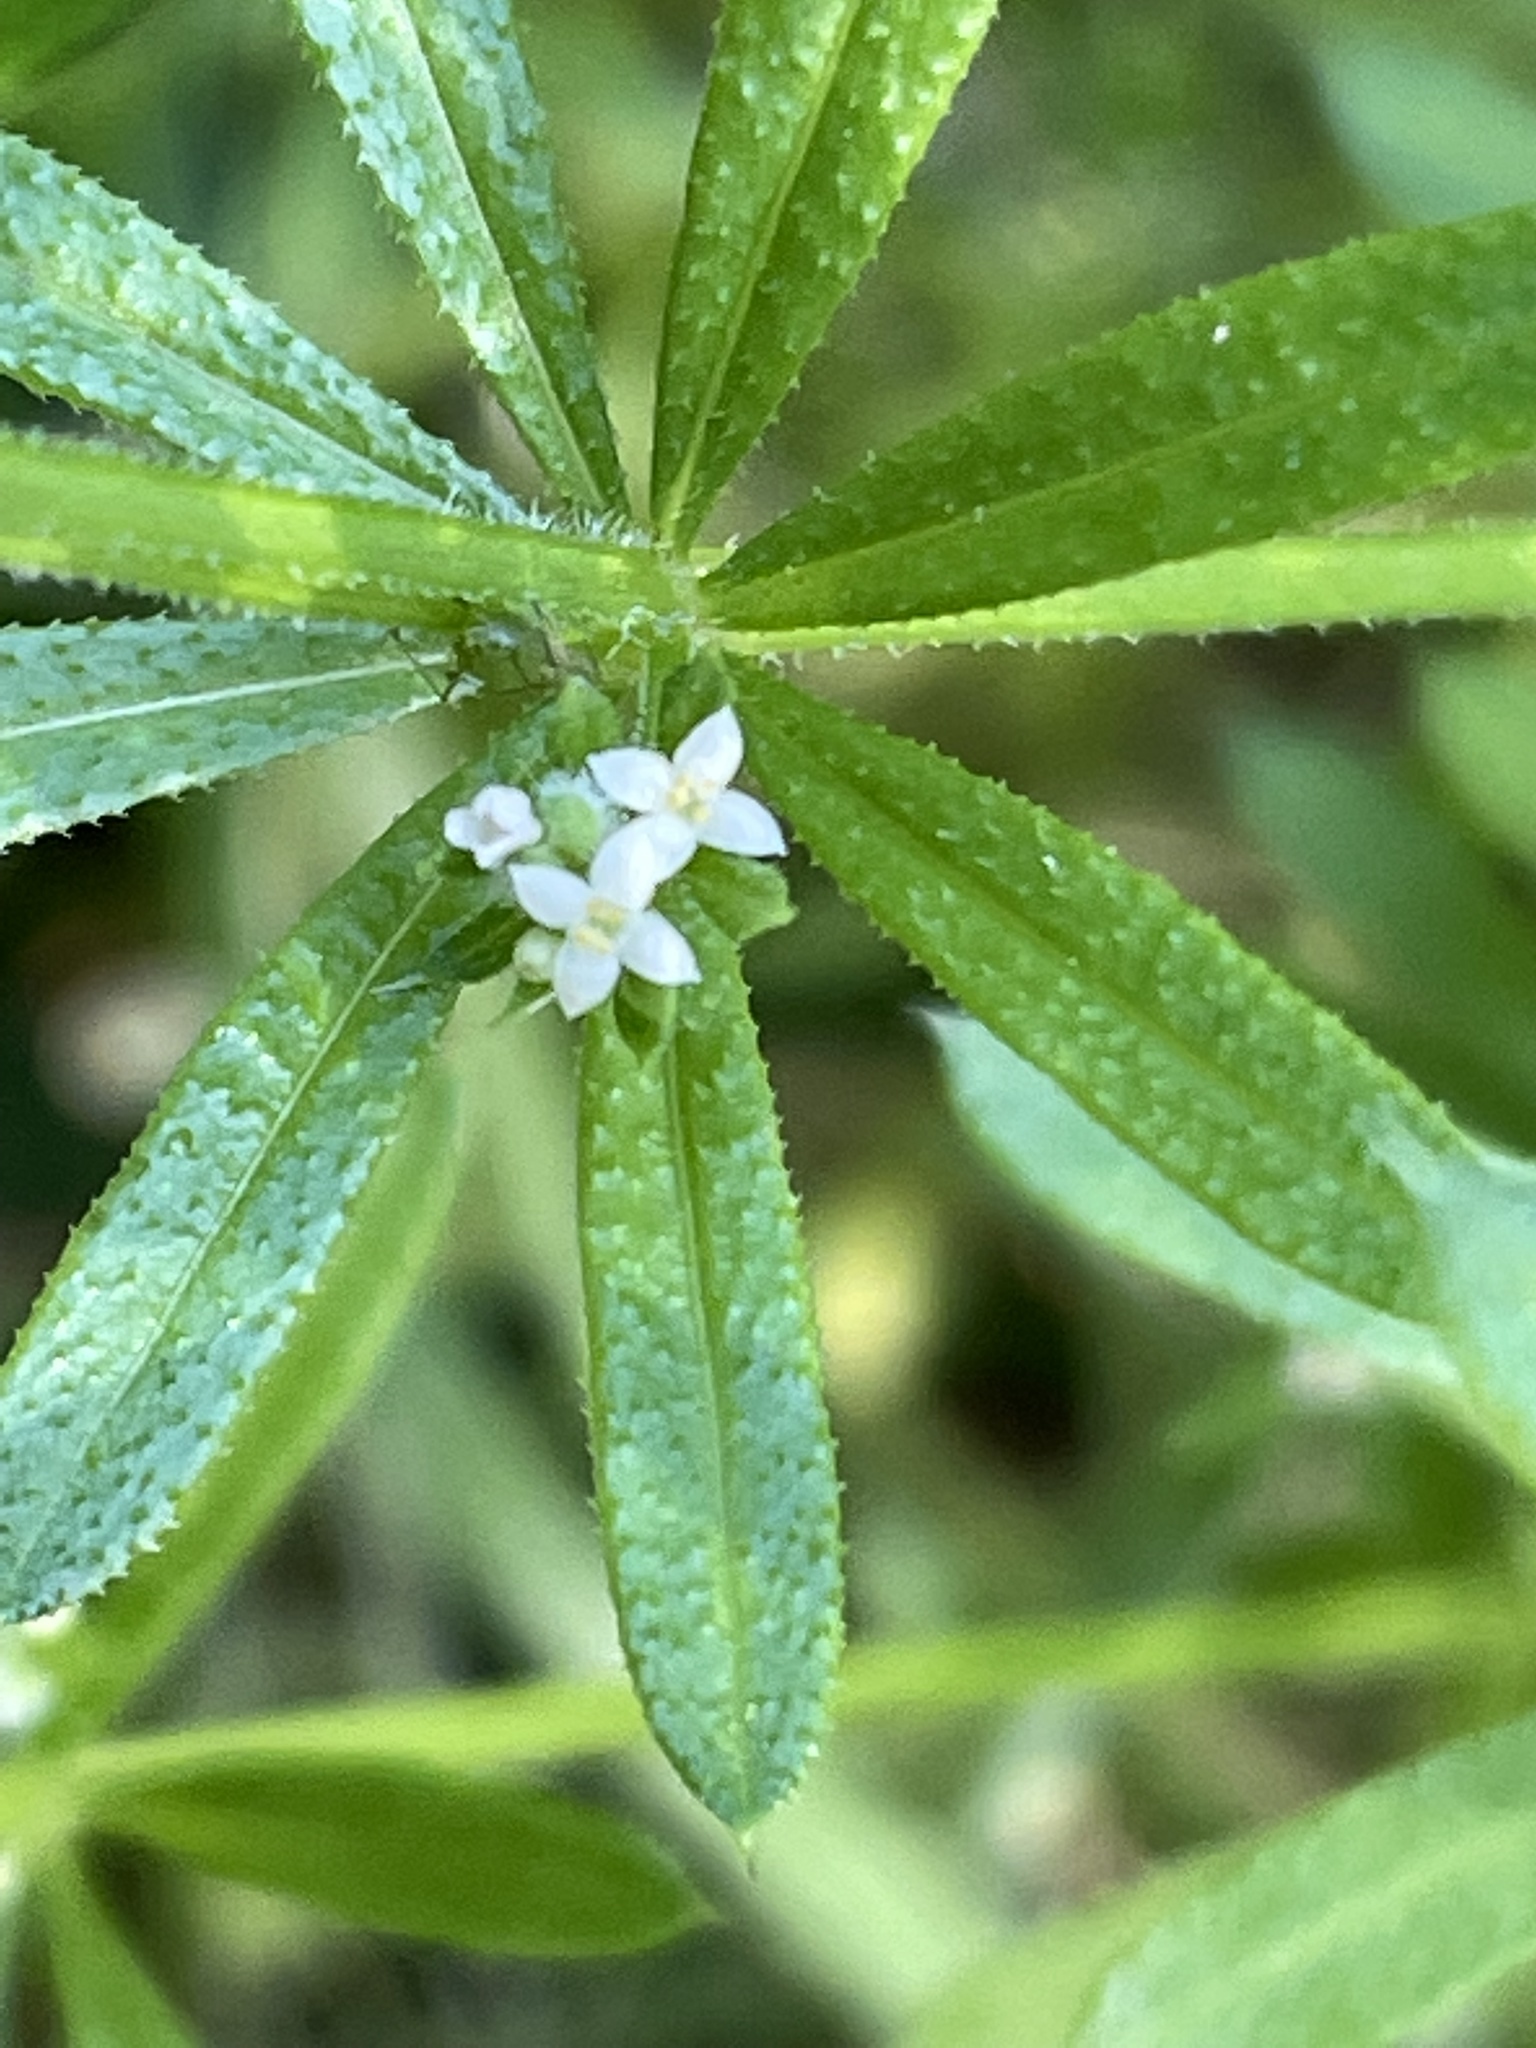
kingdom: Plantae
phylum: Tracheophyta
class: Magnoliopsida
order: Gentianales
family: Rubiaceae
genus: Galium
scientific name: Galium aparine
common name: Cleavers
